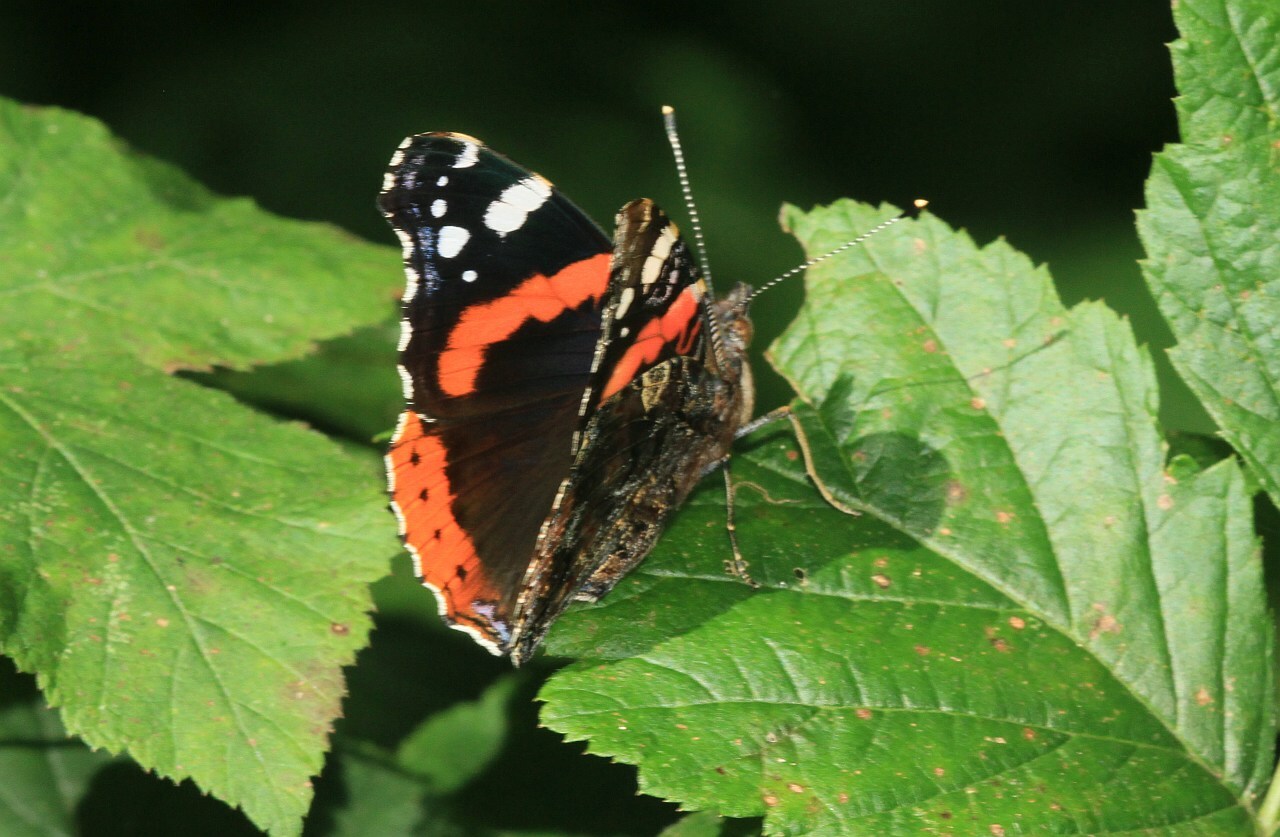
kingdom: Animalia
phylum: Arthropoda
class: Insecta
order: Lepidoptera
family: Nymphalidae
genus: Vanessa
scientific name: Vanessa atalanta
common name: Red admiral
